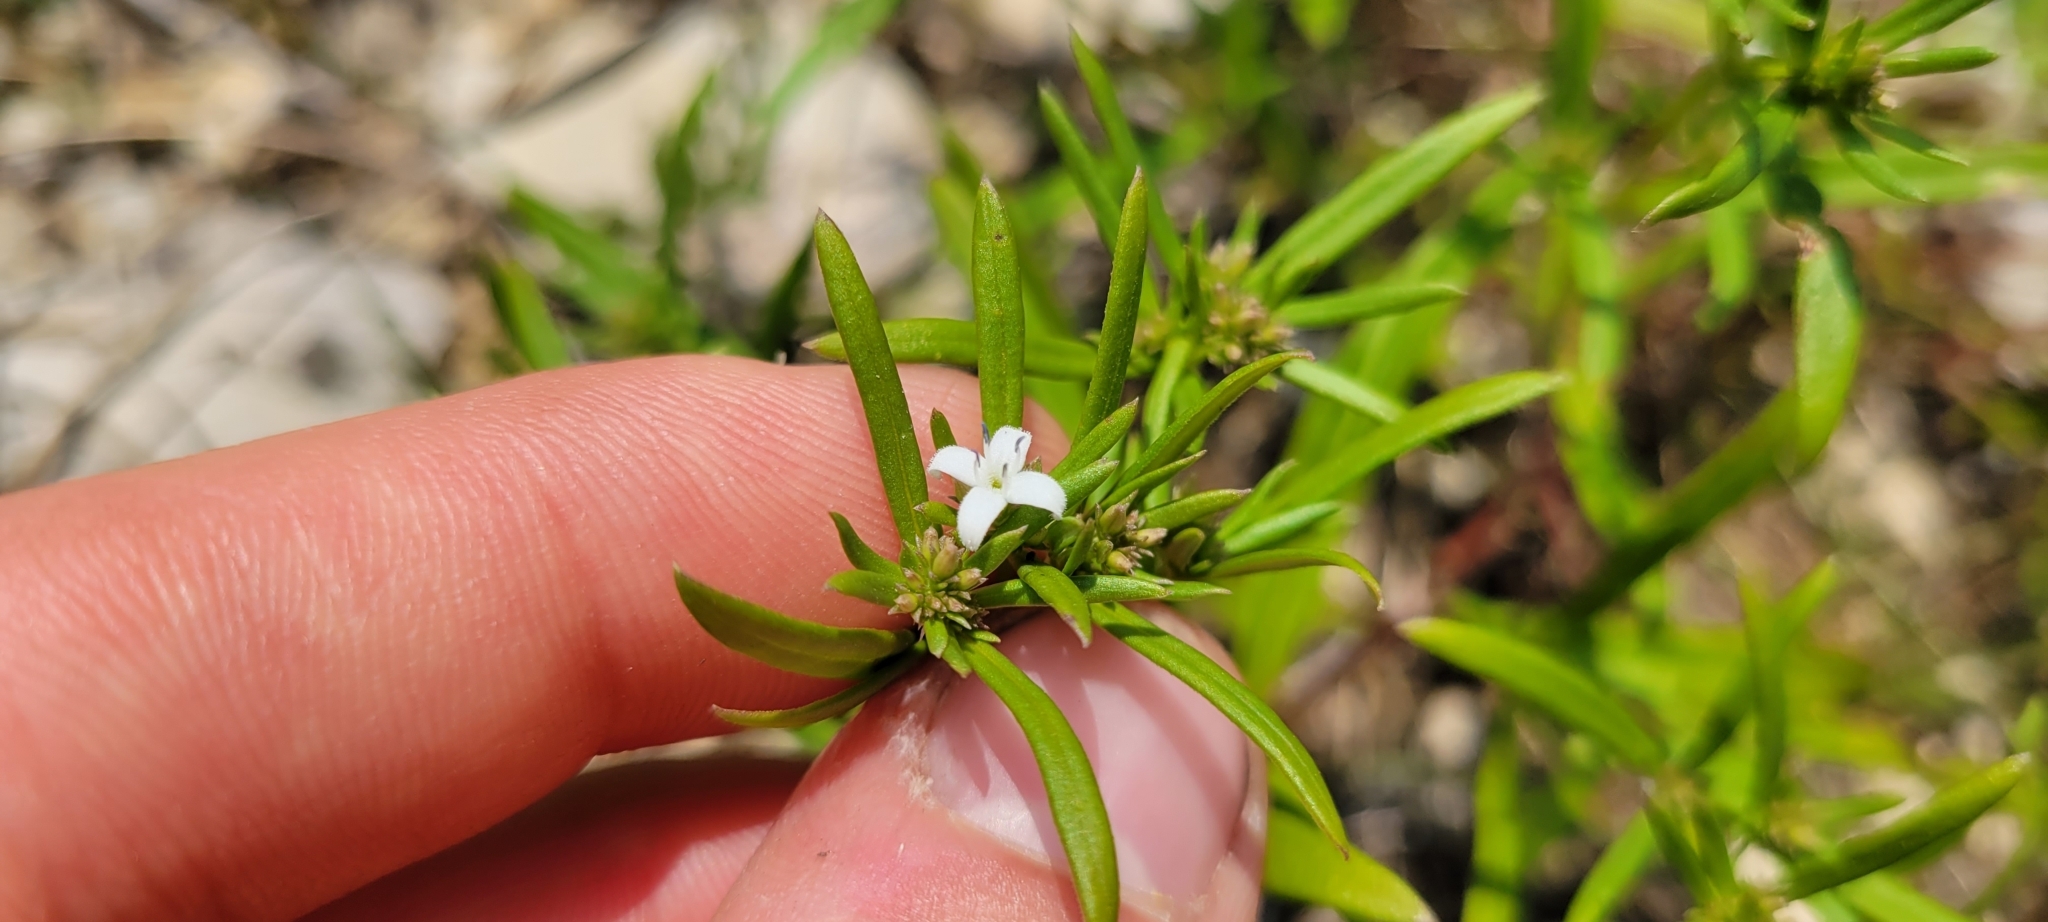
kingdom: Plantae
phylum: Tracheophyta
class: Magnoliopsida
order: Gentianales
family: Rubiaceae
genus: Houstonia
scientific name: Houstonia purpurea
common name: Summer bluet
